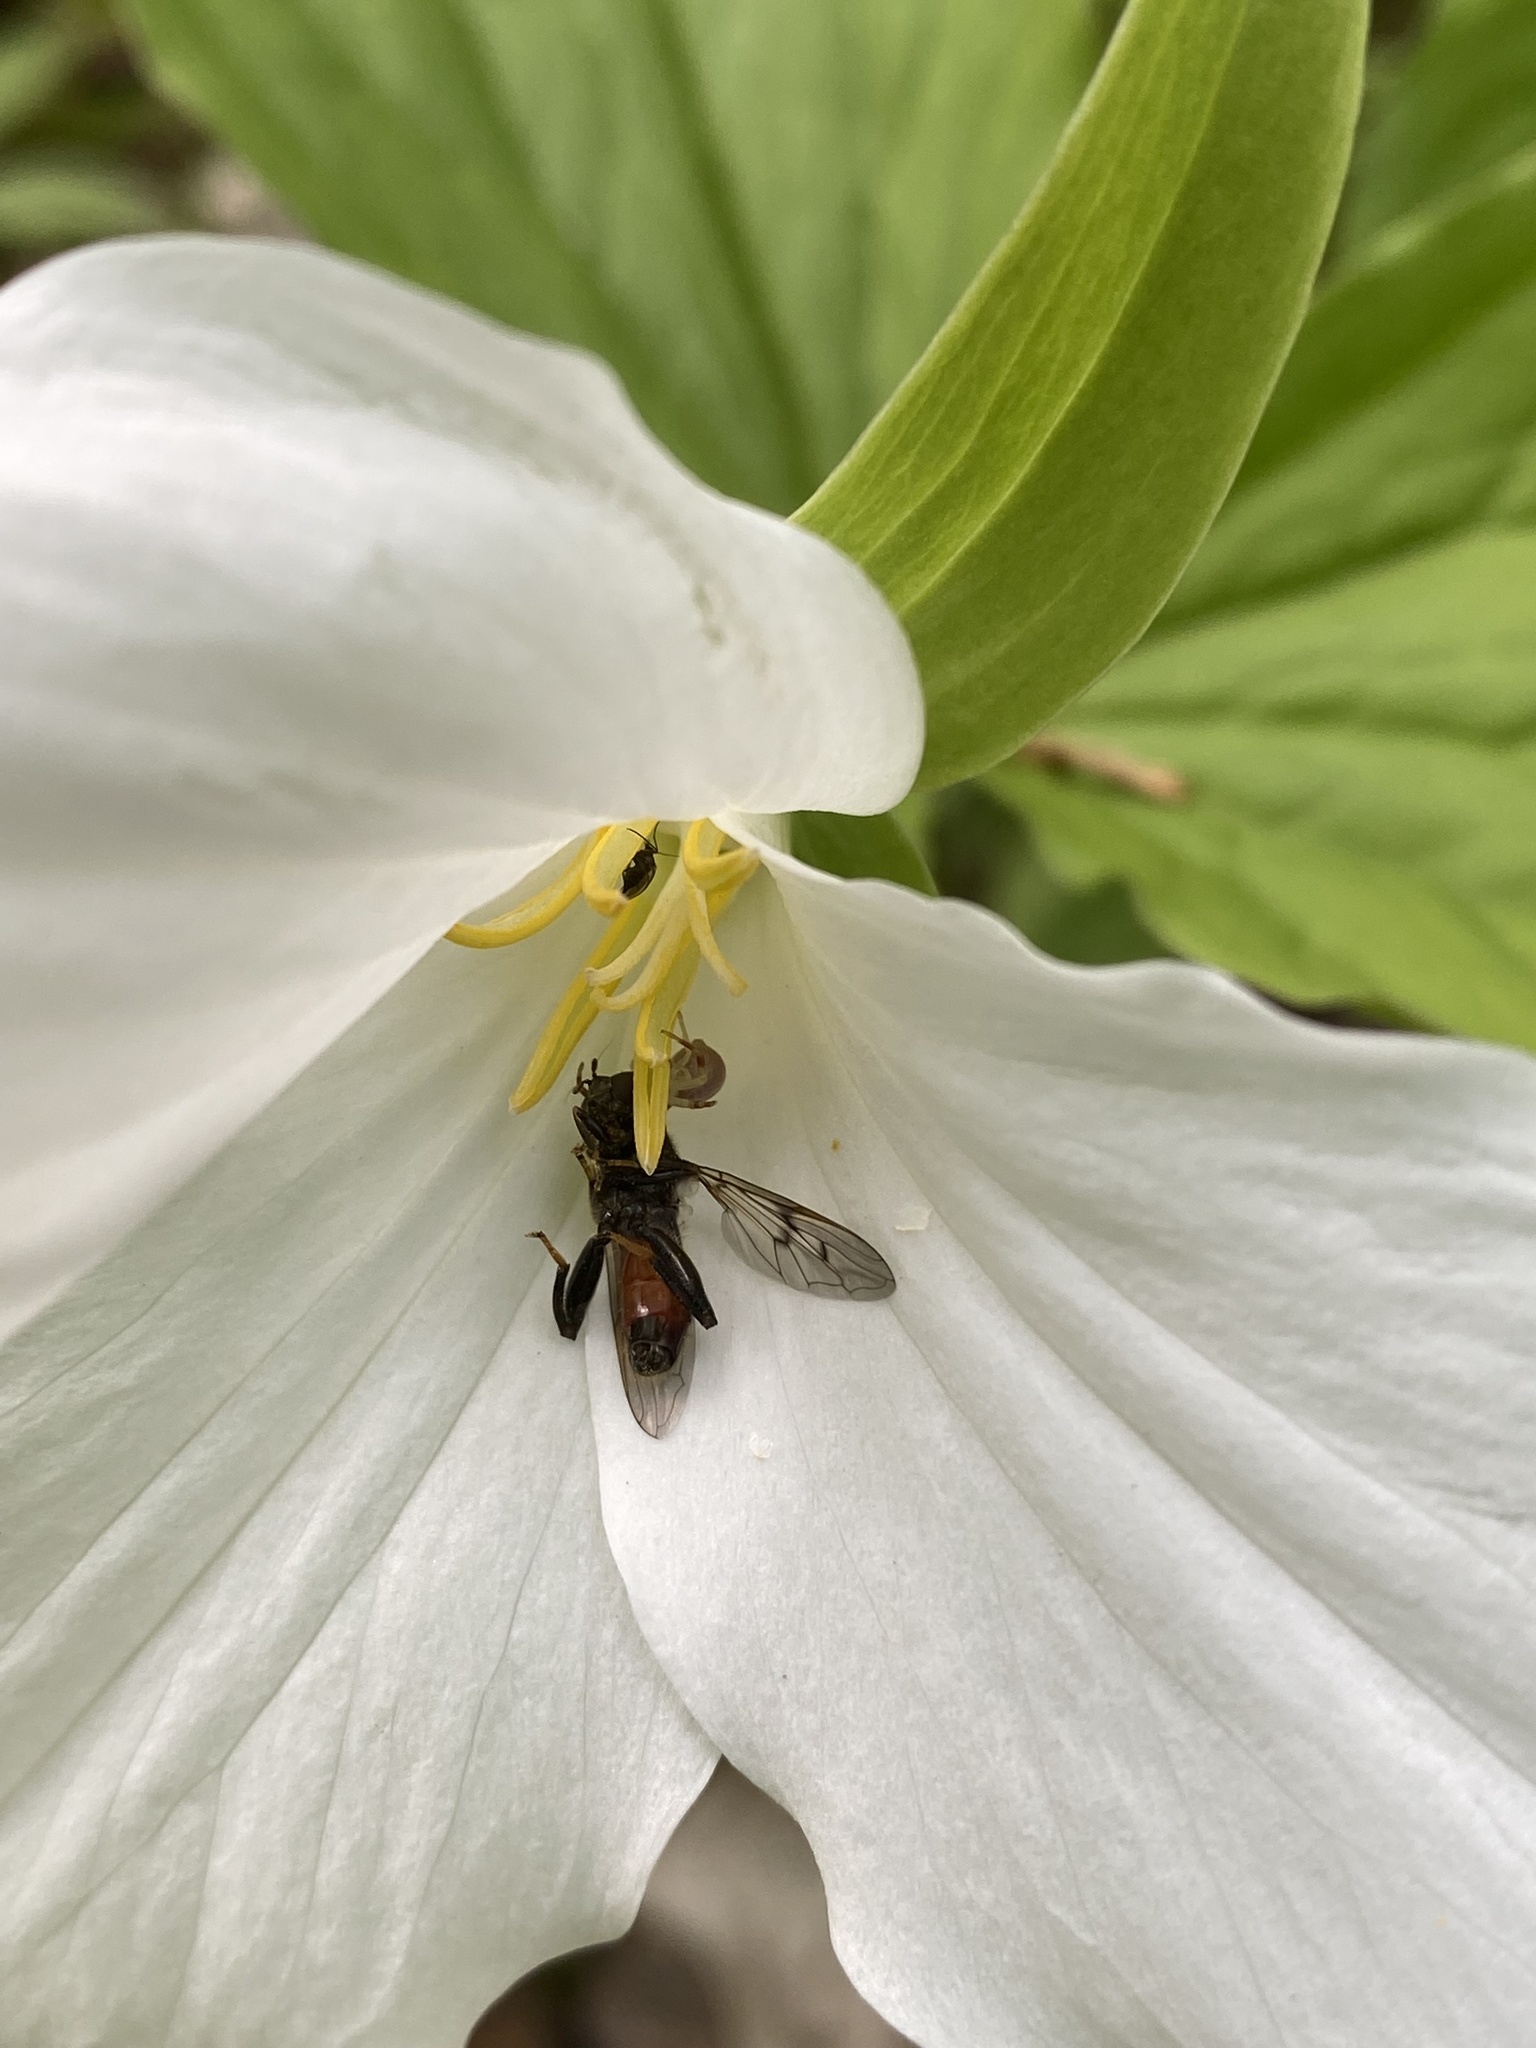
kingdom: Animalia
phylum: Arthropoda
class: Insecta
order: Diptera
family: Syrphidae
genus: Chalcosyrphus
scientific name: Chalcosyrphus libo
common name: Long-haired forest fly
